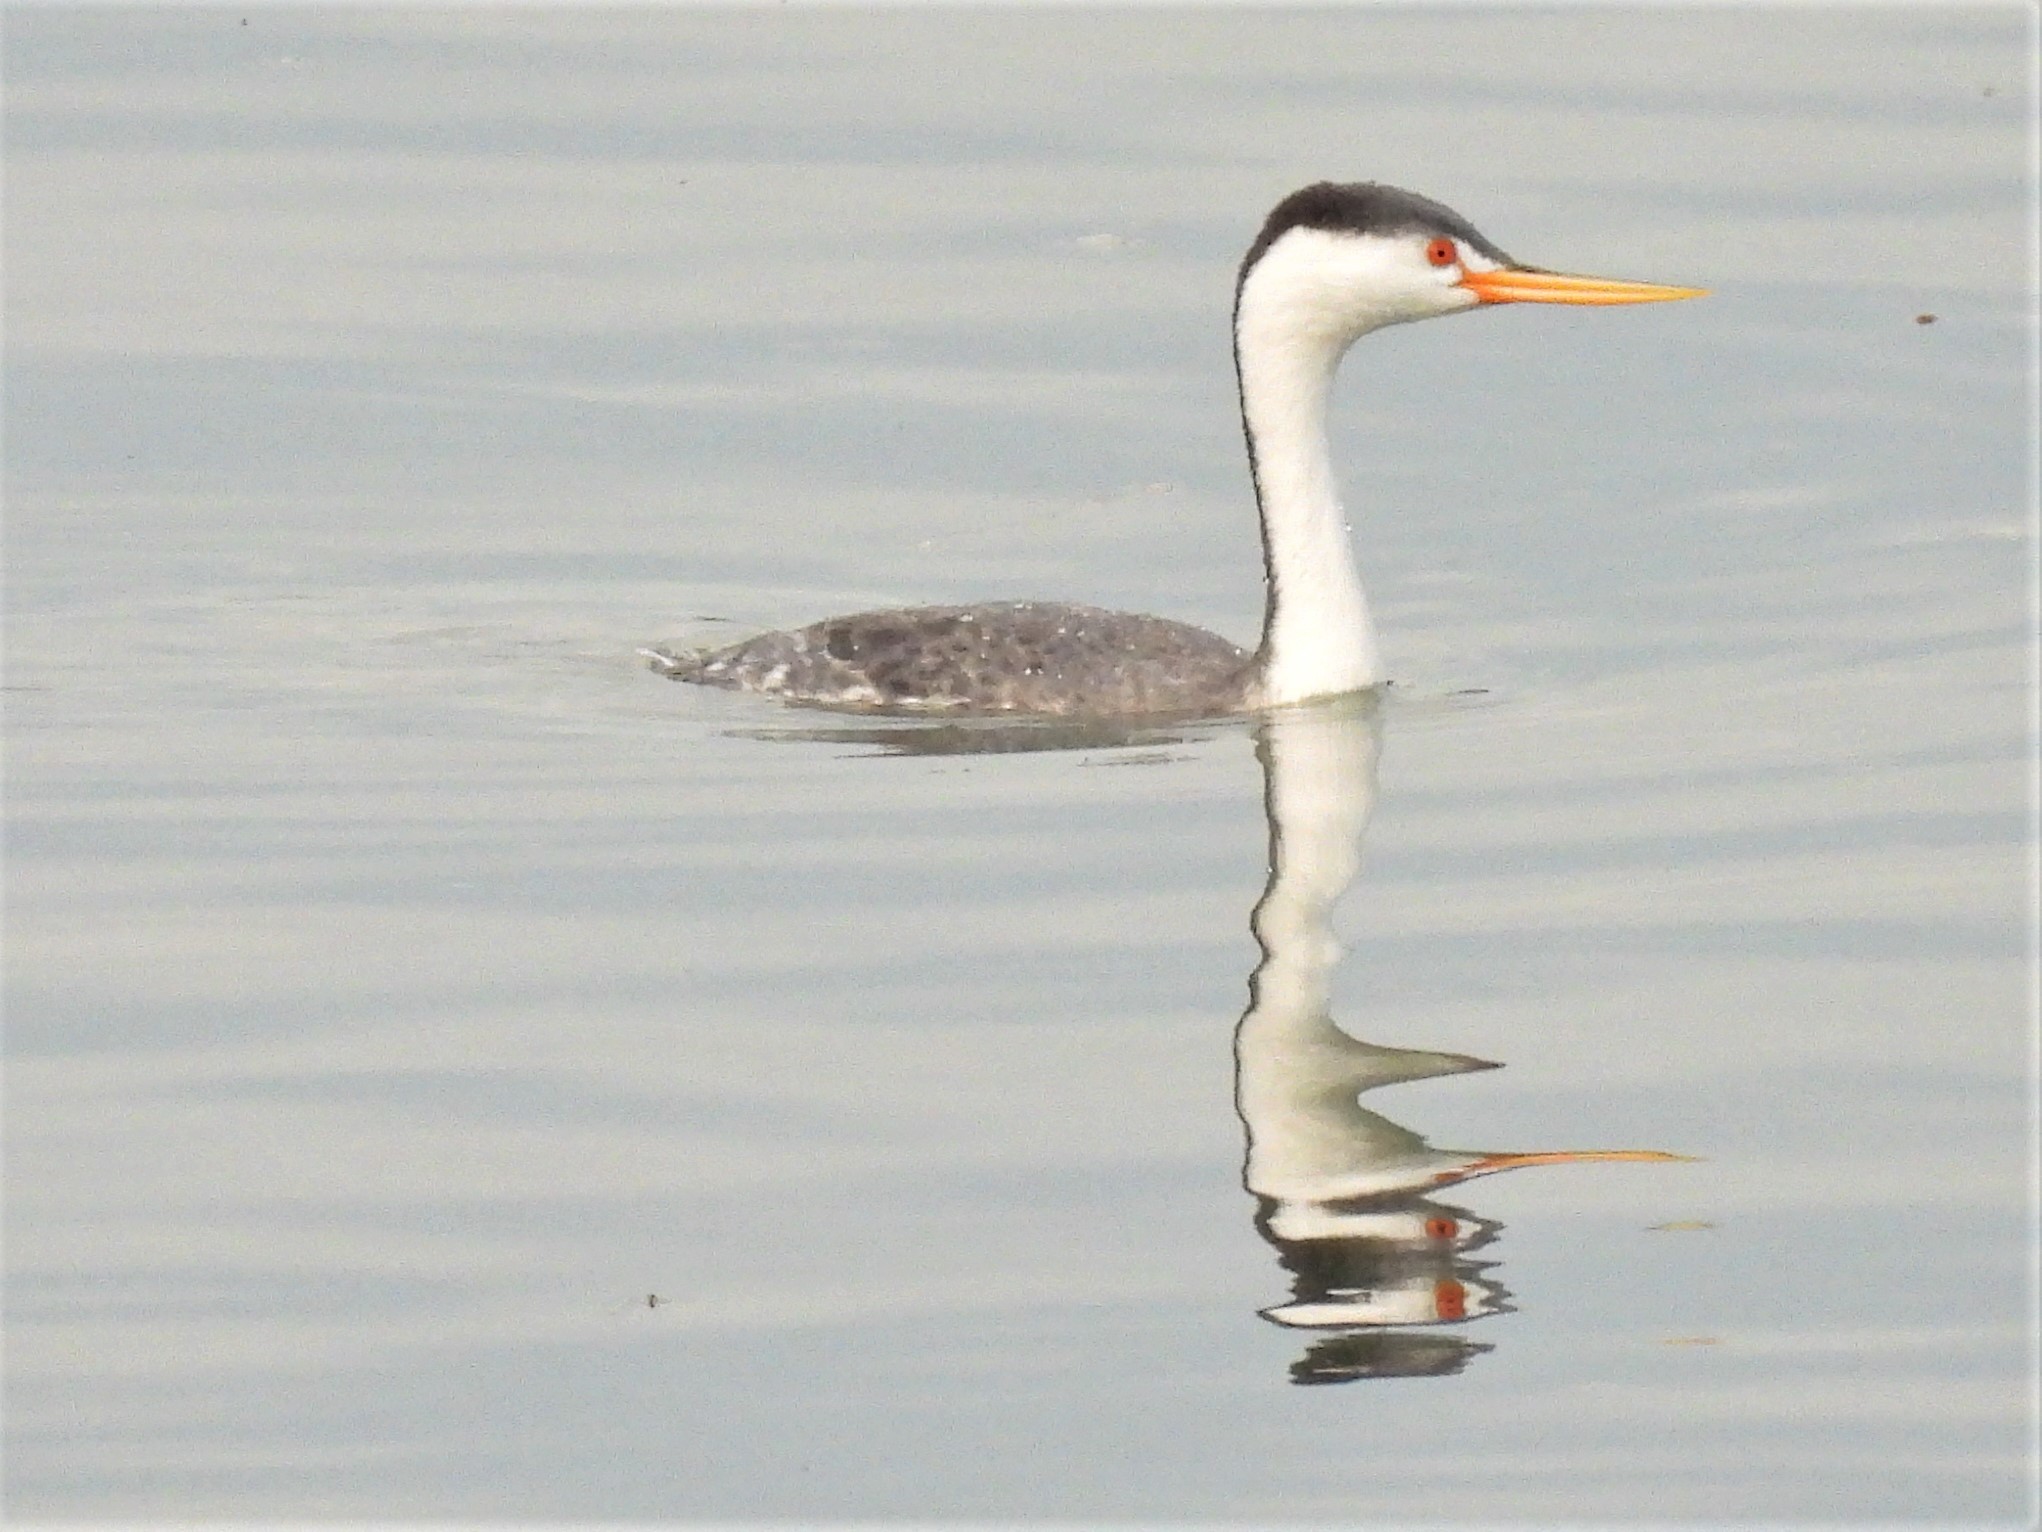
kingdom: Animalia
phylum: Chordata
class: Aves
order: Podicipediformes
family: Podicipedidae
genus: Aechmophorus
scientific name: Aechmophorus clarkii
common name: Clark's grebe
